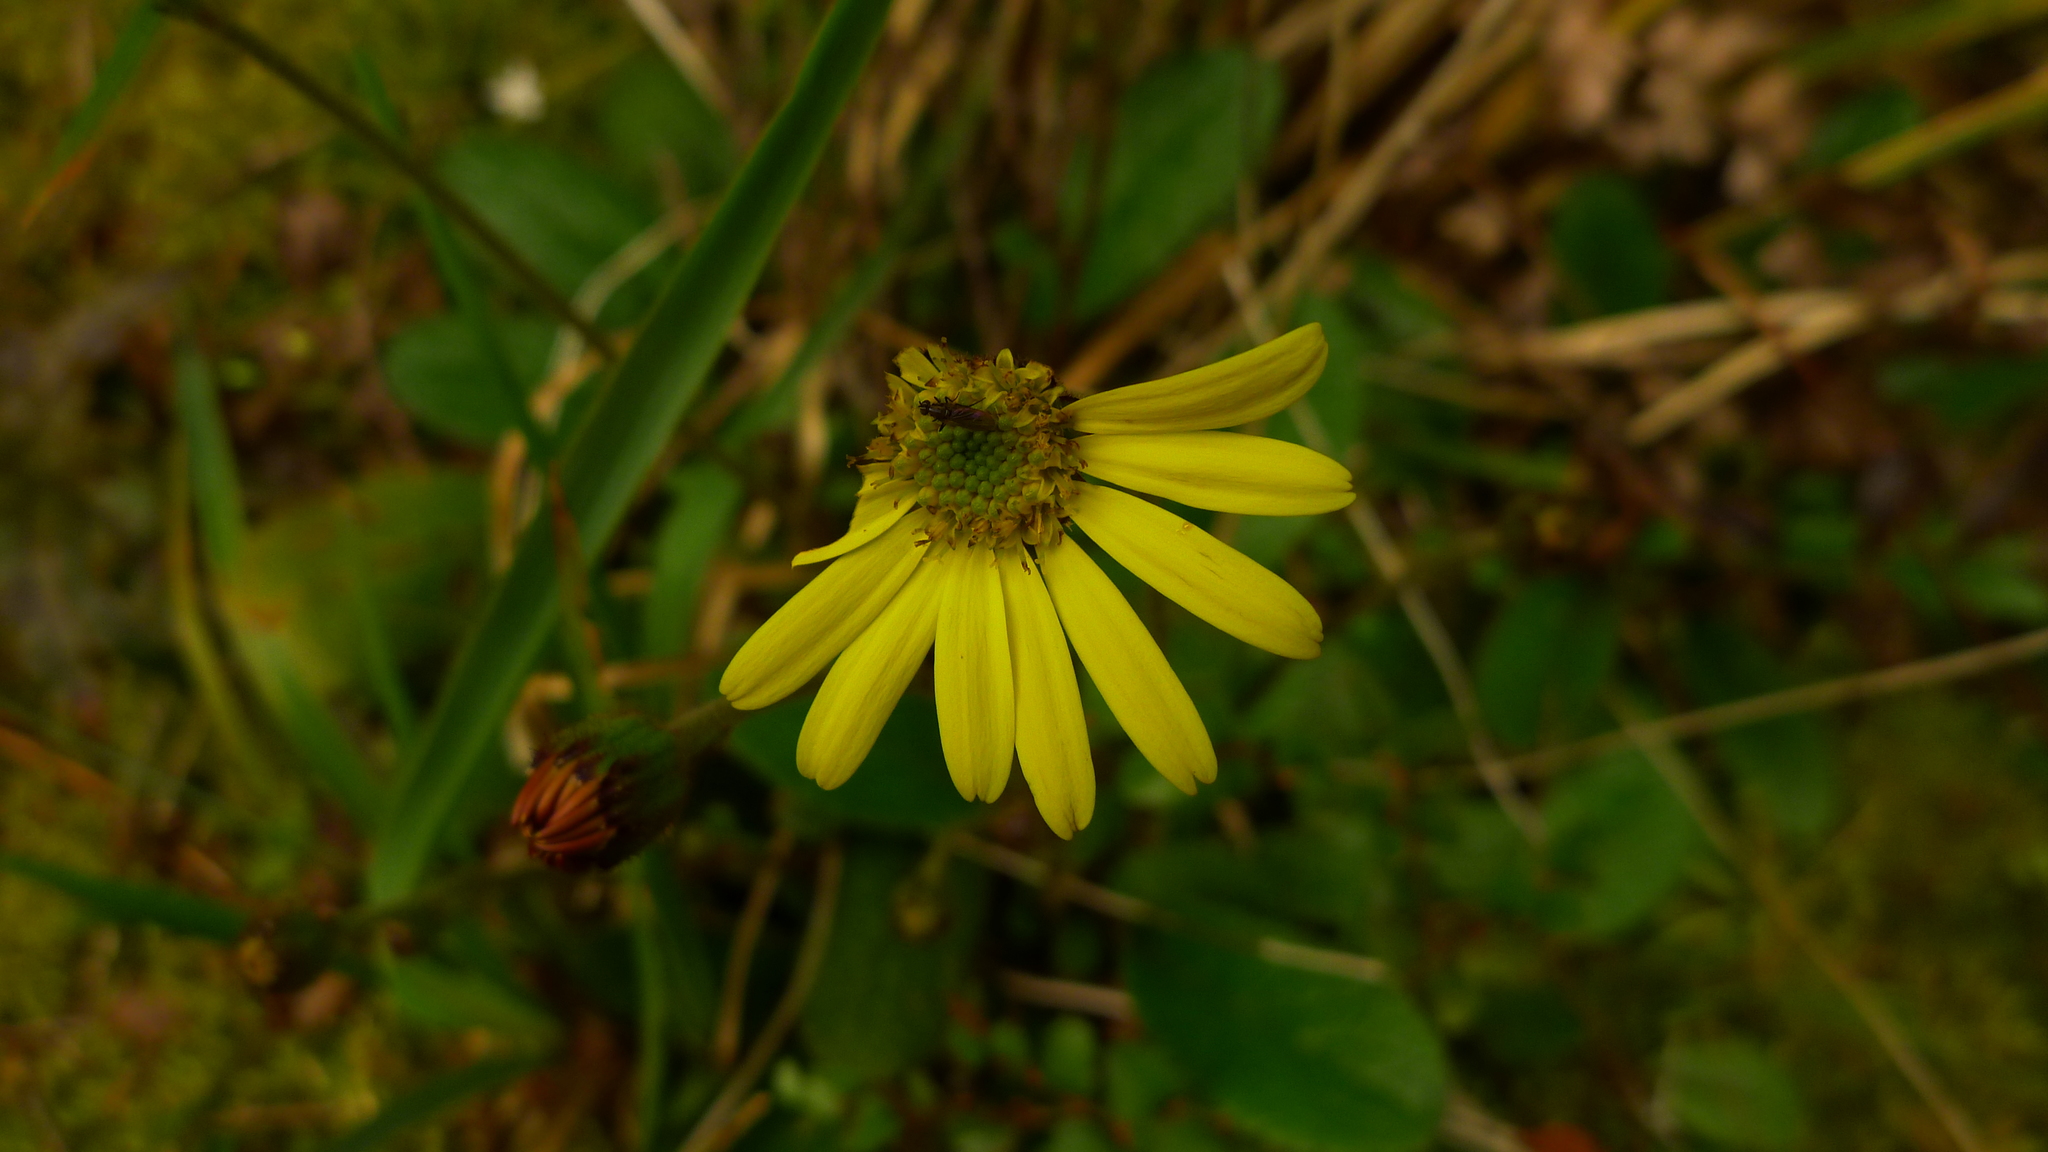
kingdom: Plantae
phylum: Tracheophyta
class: Magnoliopsida
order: Asterales
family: Asteraceae
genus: Brachyglottis
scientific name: Brachyglottis bellidioides
